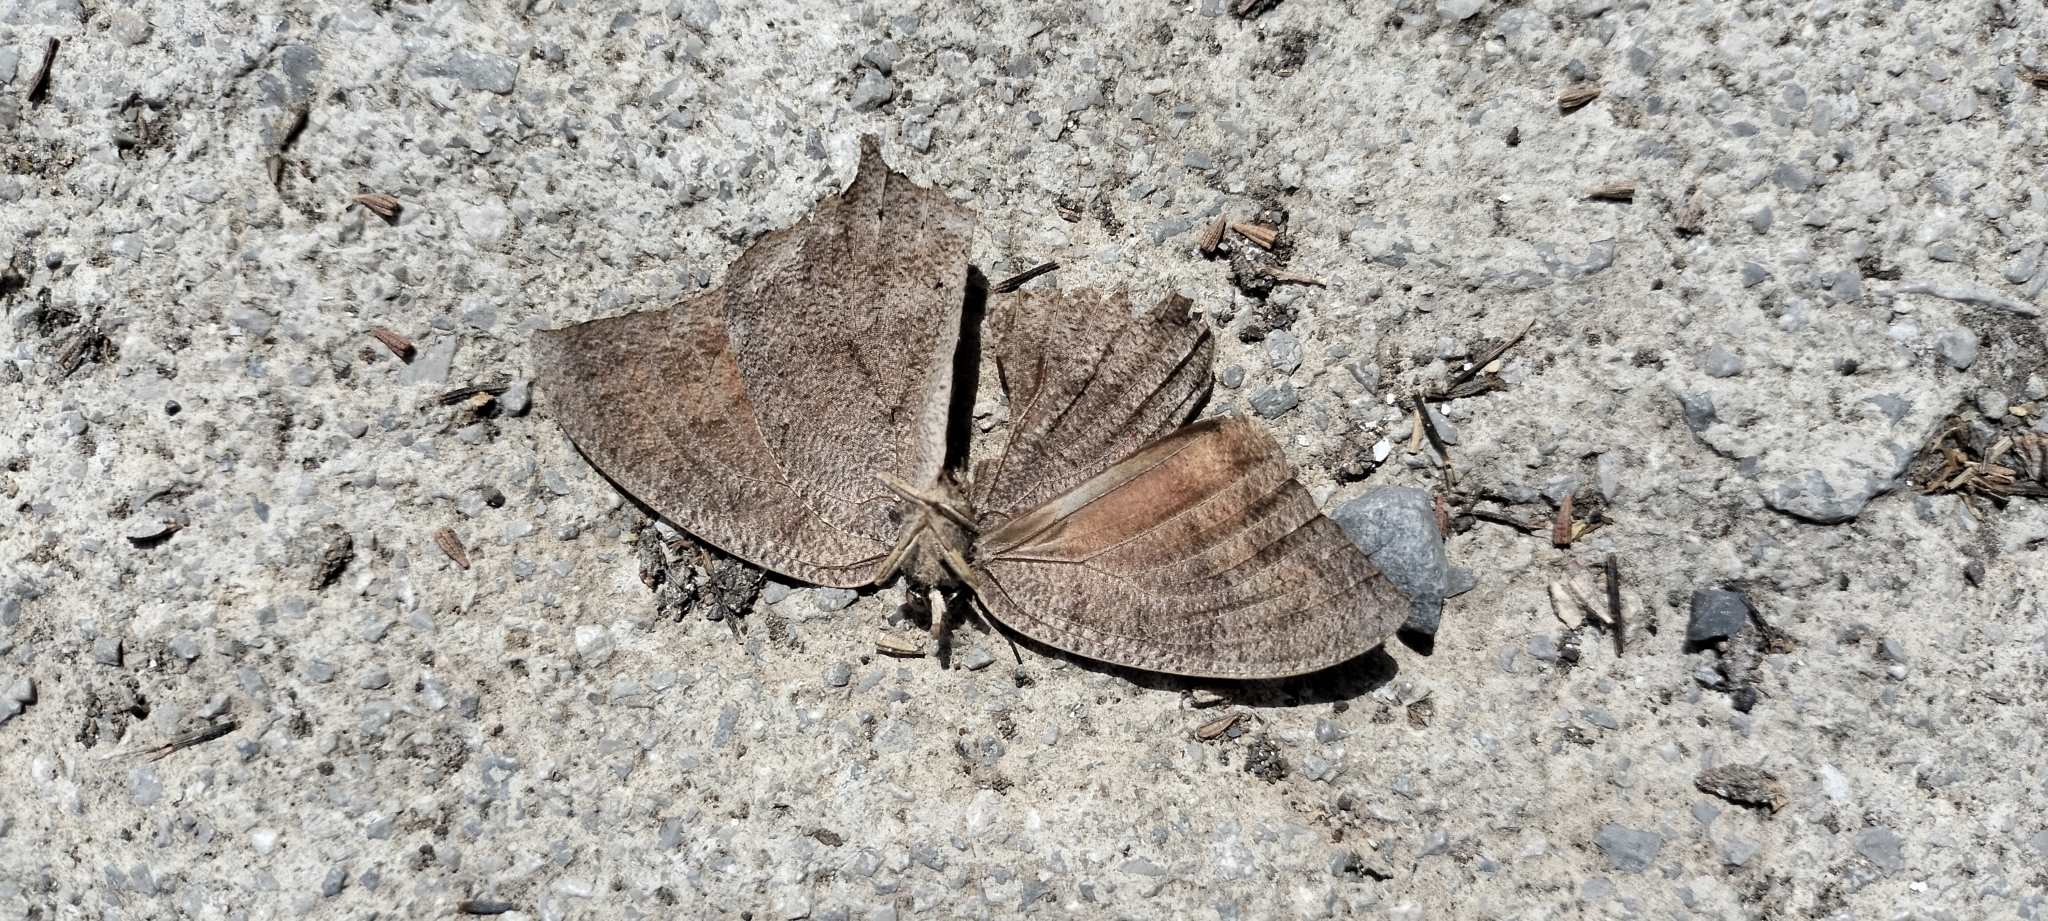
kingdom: Animalia
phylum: Arthropoda
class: Insecta
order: Lepidoptera
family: Nymphalidae
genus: Anaea
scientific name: Anaea aidea
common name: Tropical leafwing
